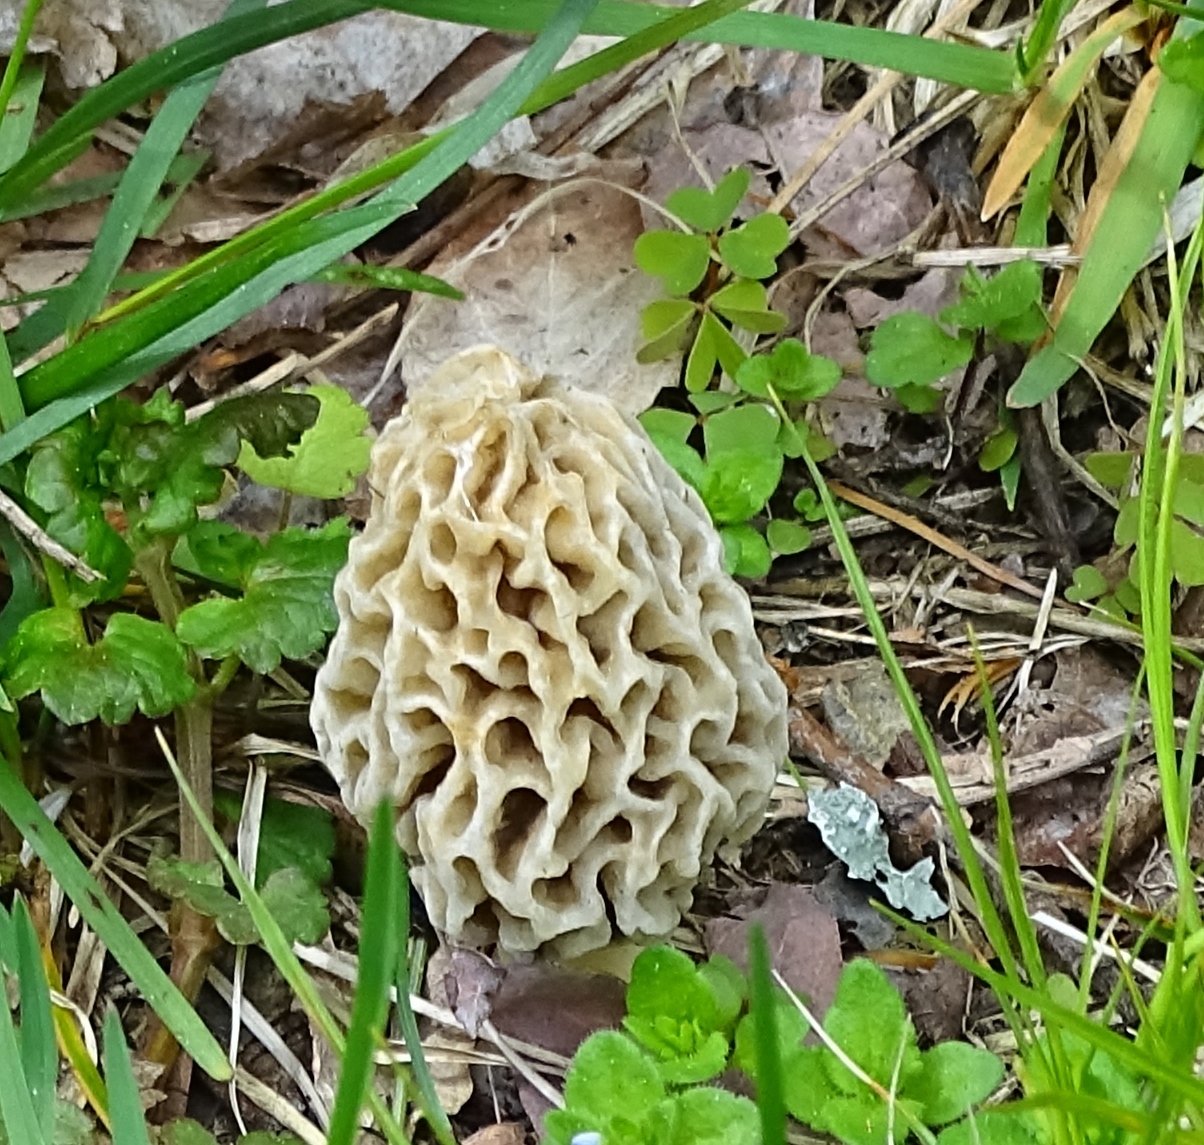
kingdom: Fungi
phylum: Ascomycota
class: Pezizomycetes
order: Pezizales
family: Morchellaceae
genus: Morchella
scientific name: Morchella americana
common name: White morel
